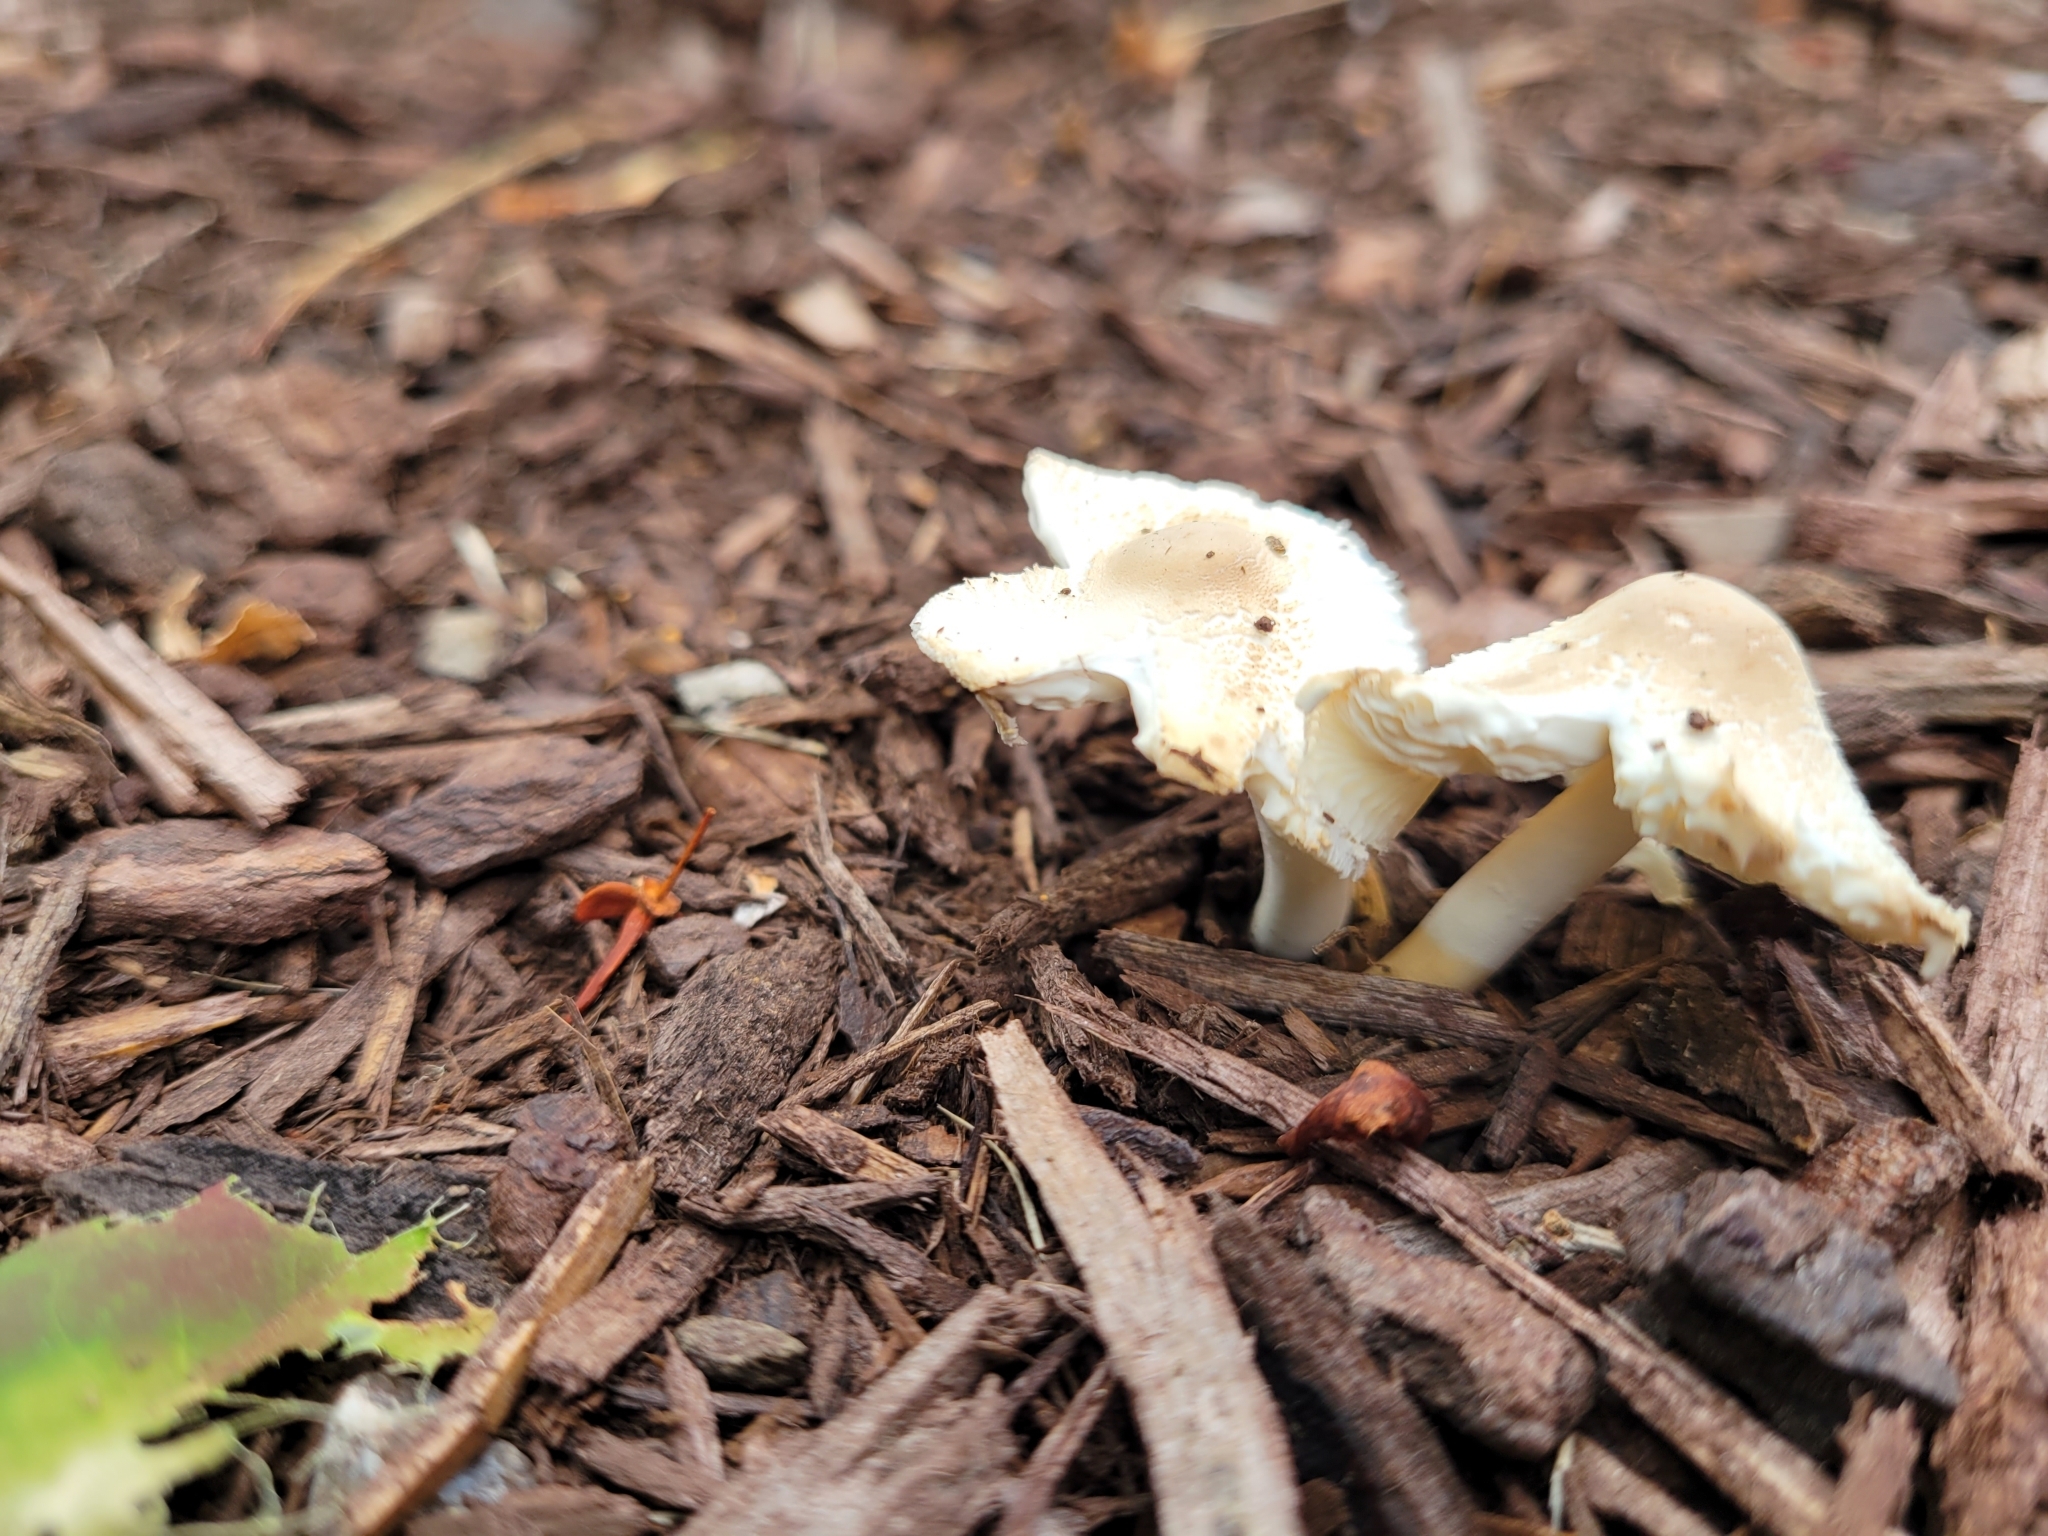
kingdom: Fungi
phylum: Basidiomycota
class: Agaricomycetes
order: Agaricales
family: Agaricaceae
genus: Leucocoprinus
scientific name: Leucocoprinus cepistipes
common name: Onion-stalk parasol
